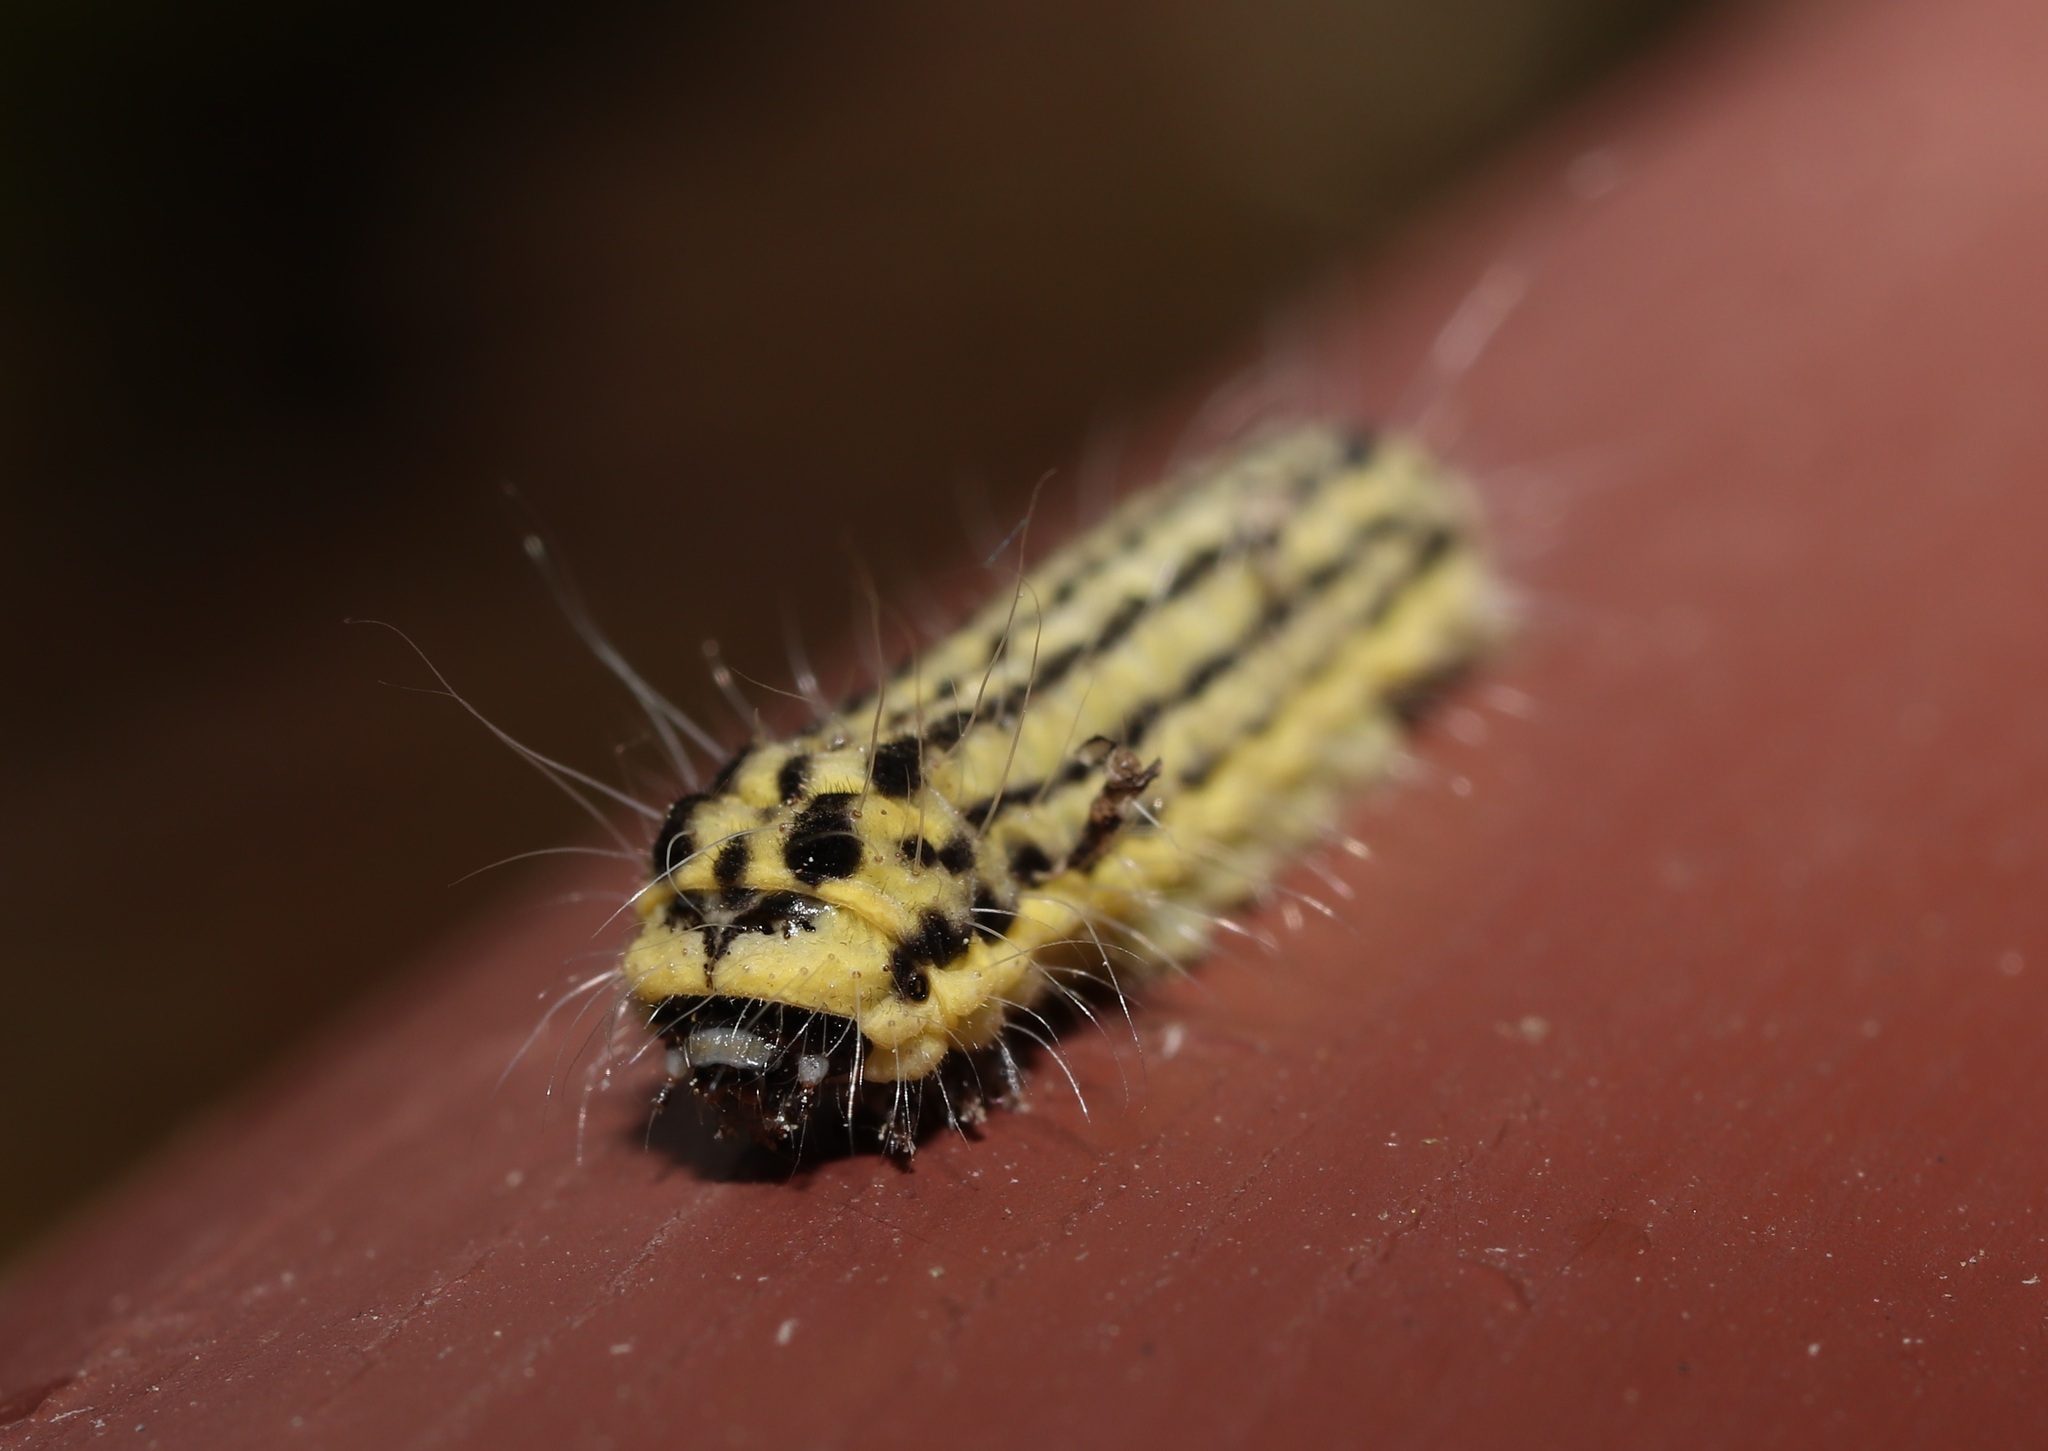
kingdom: Animalia
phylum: Arthropoda
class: Insecta
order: Lepidoptera
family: Zygaenidae
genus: Sinica
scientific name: Sinica sinica
